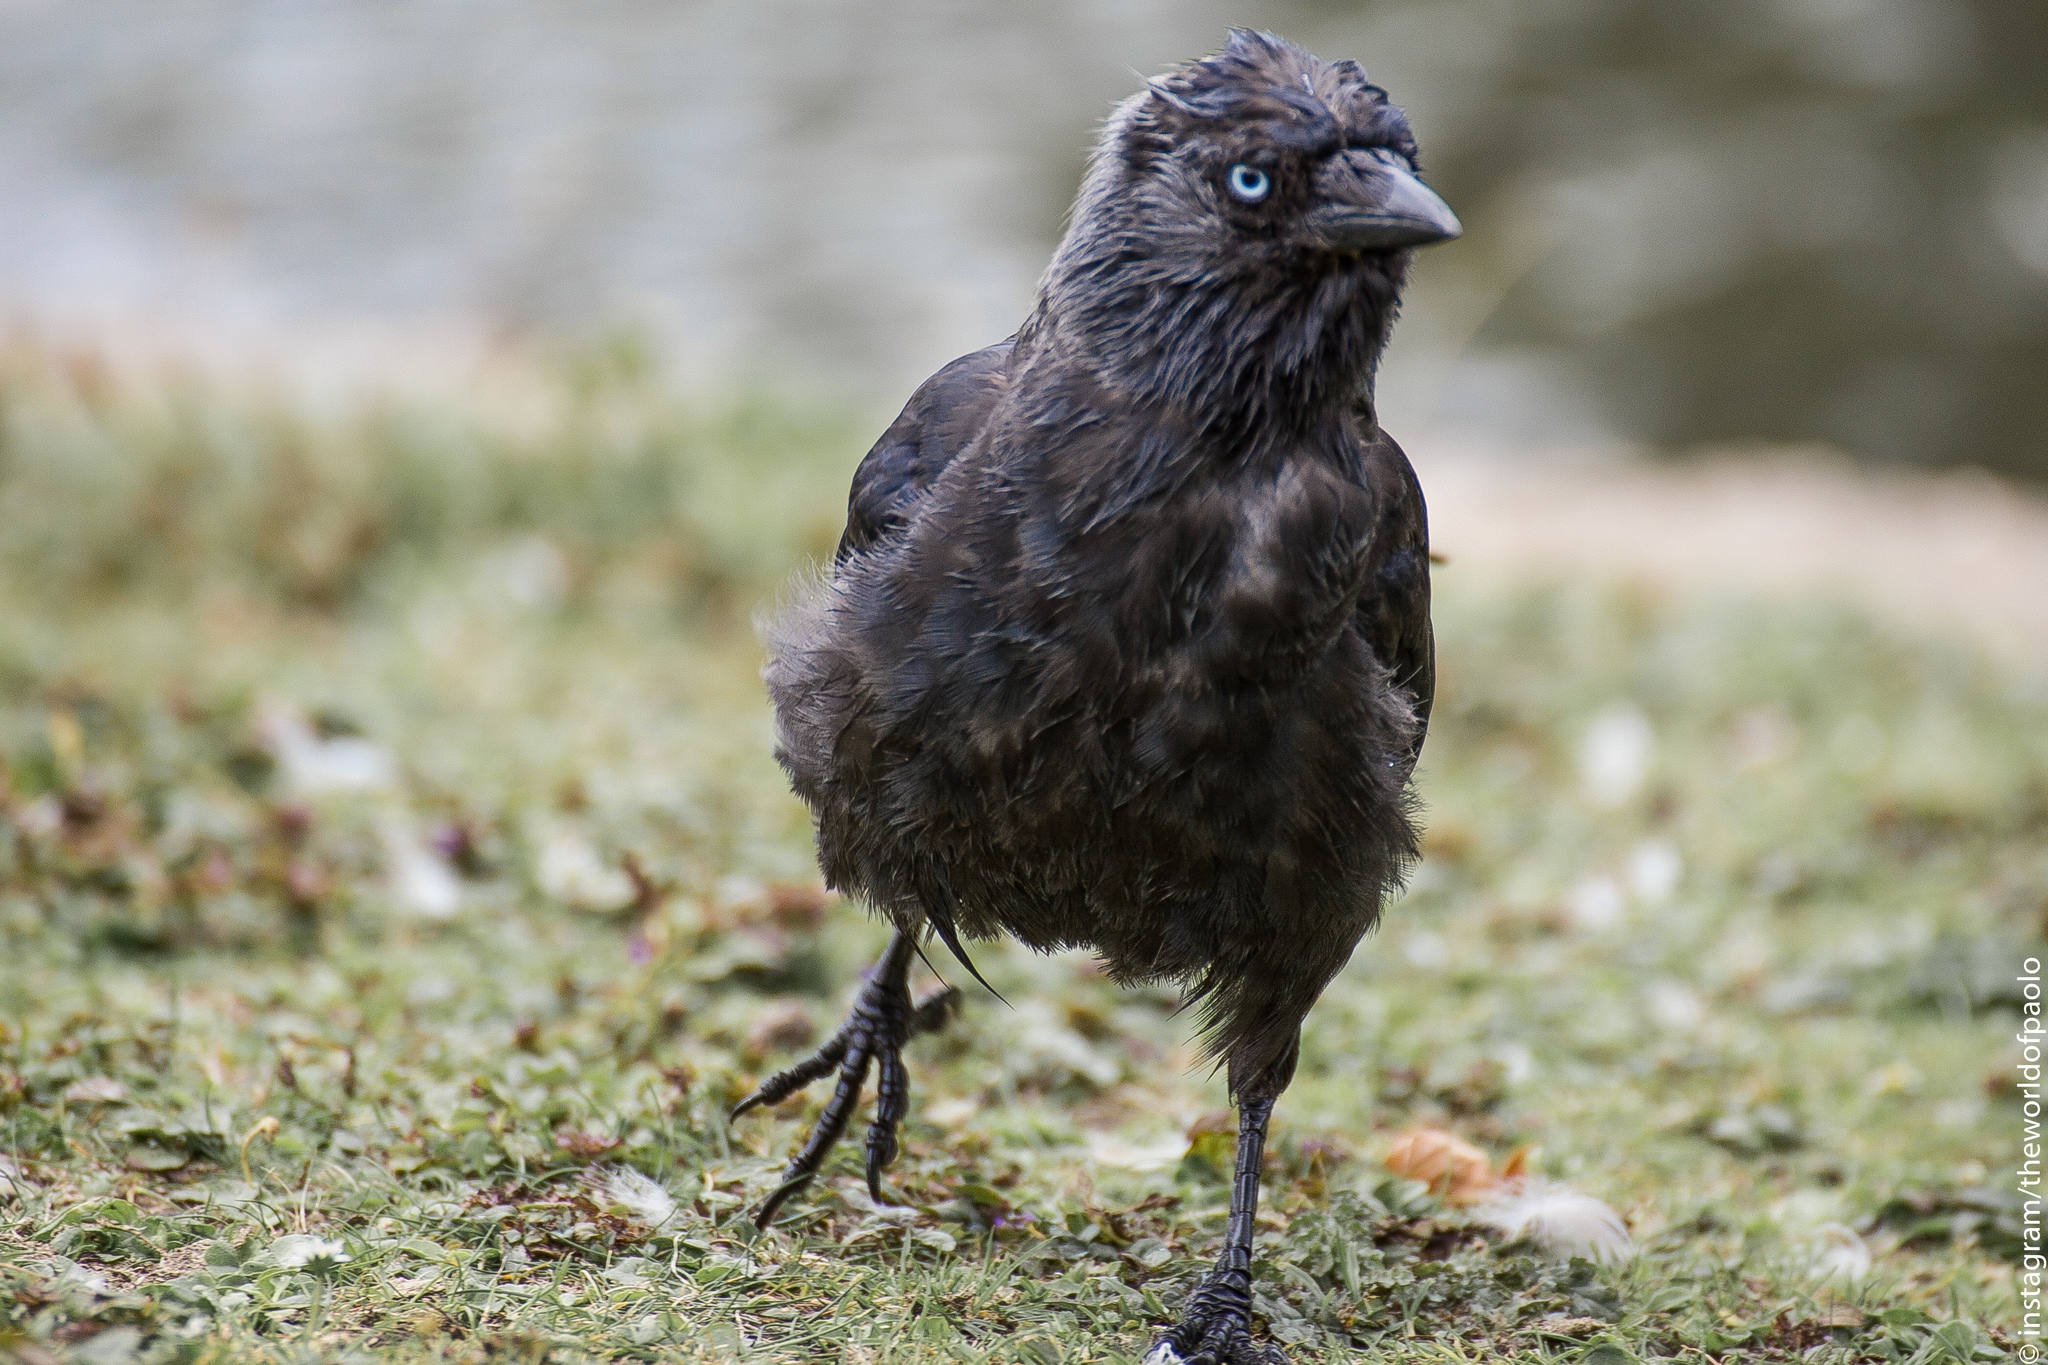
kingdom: Animalia
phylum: Chordata
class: Aves
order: Passeriformes
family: Corvidae
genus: Coloeus
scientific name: Coloeus monedula
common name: Western jackdaw
